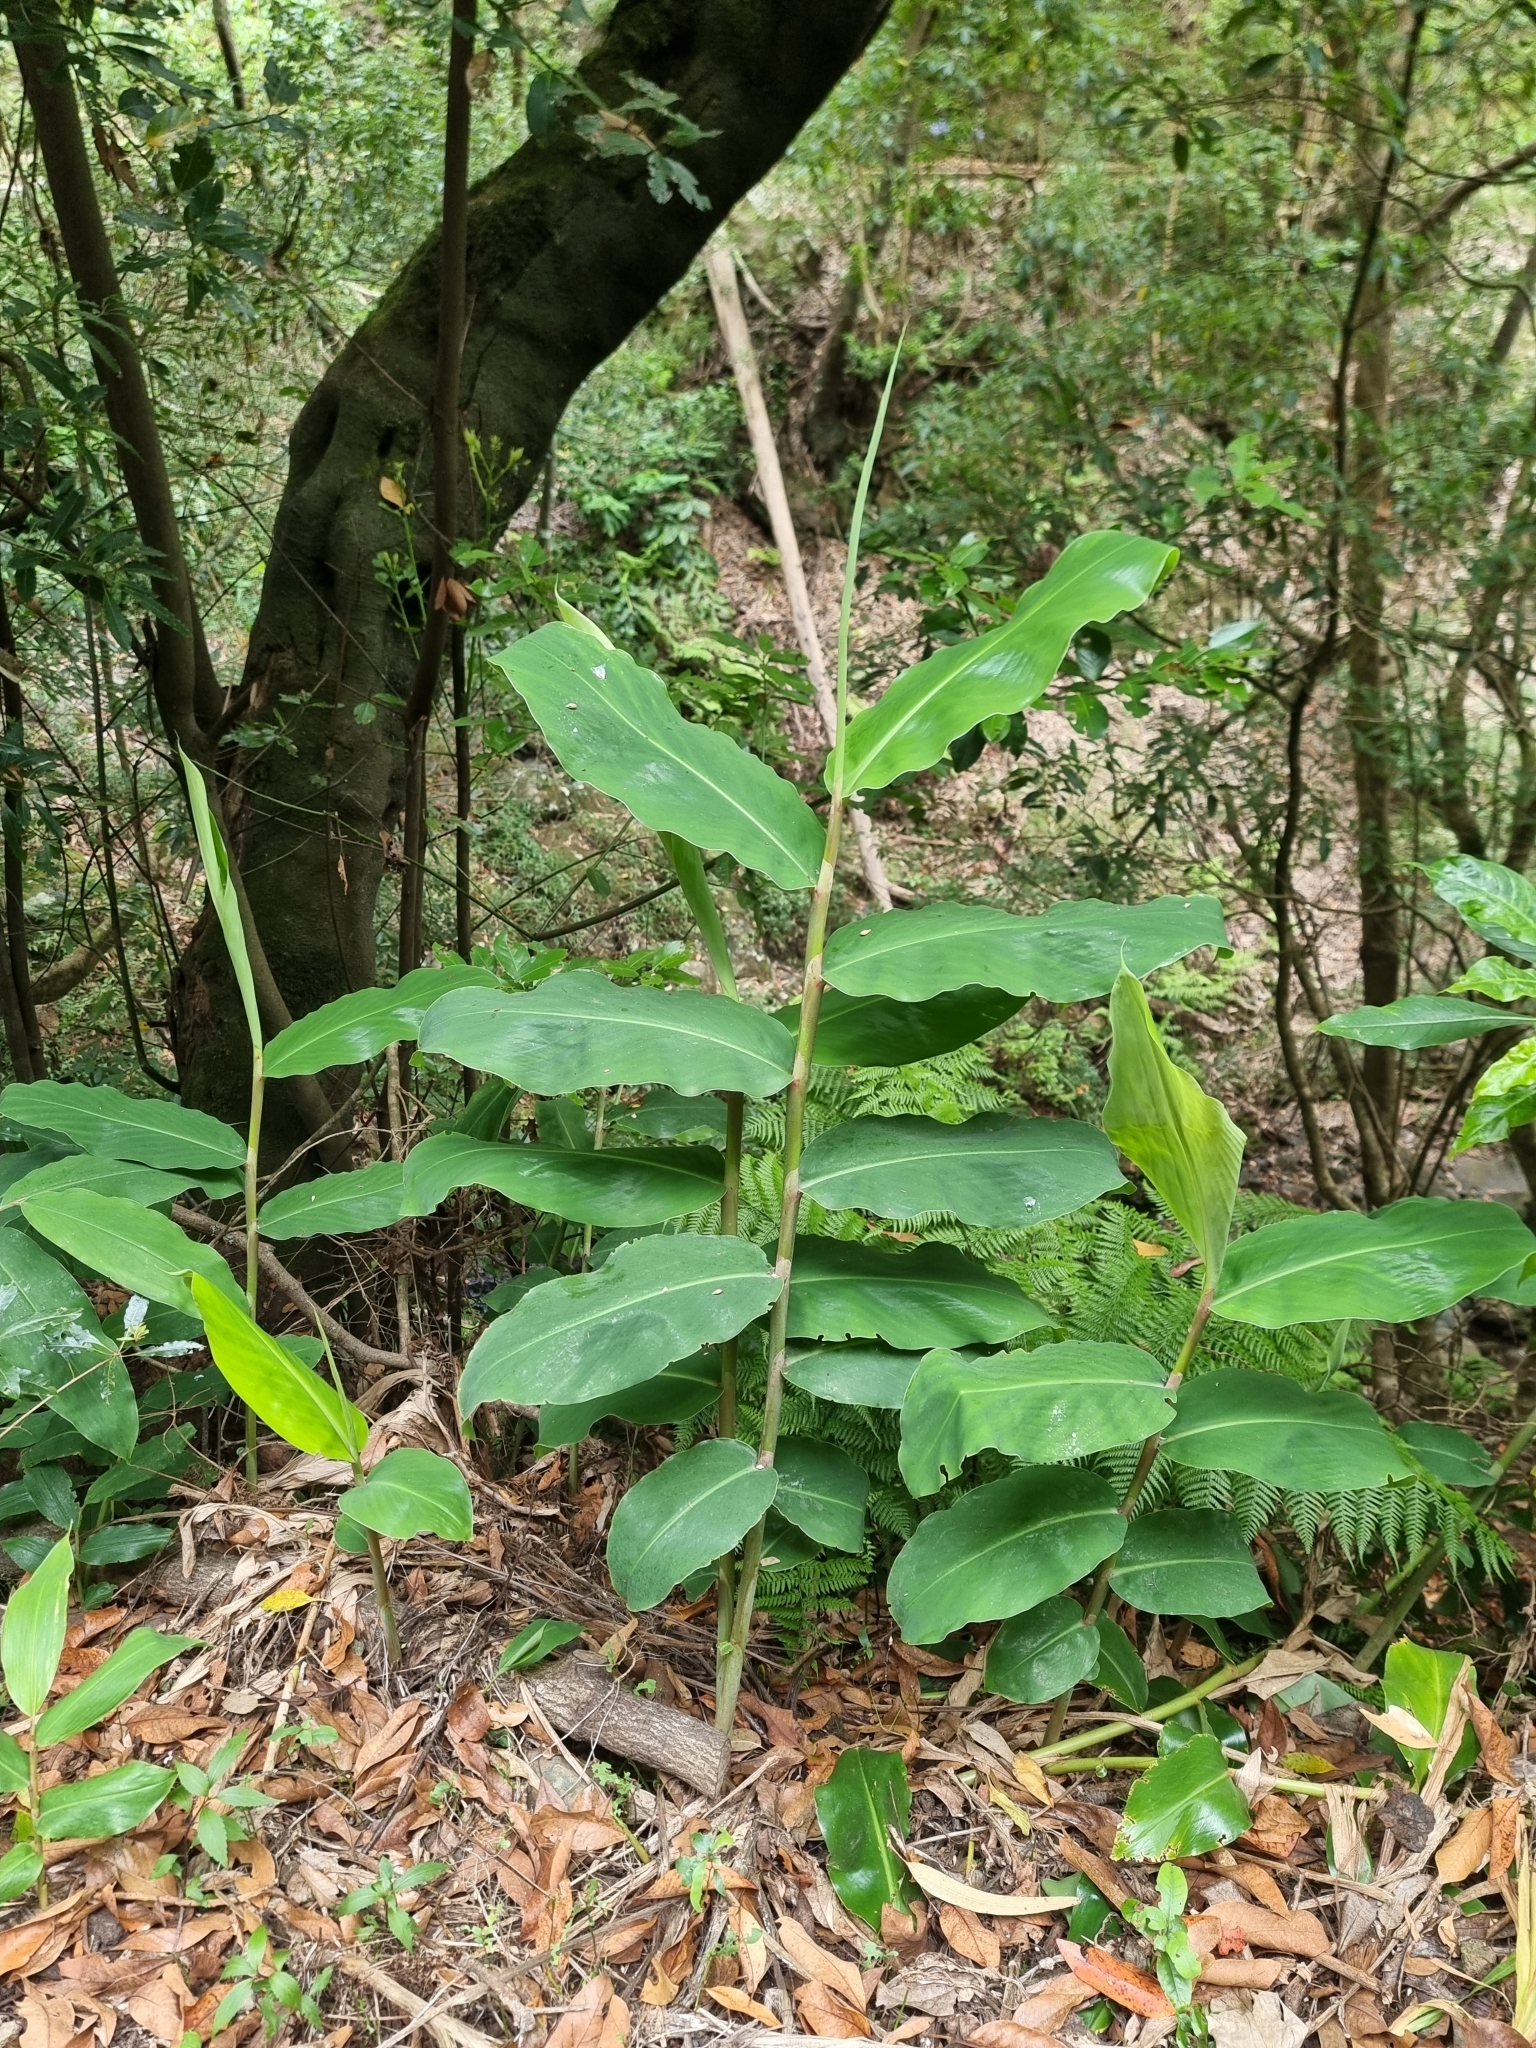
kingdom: Plantae
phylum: Tracheophyta
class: Liliopsida
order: Zingiberales
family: Zingiberaceae
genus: Hedychium
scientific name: Hedychium gardnerianum
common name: Himalayan ginger
